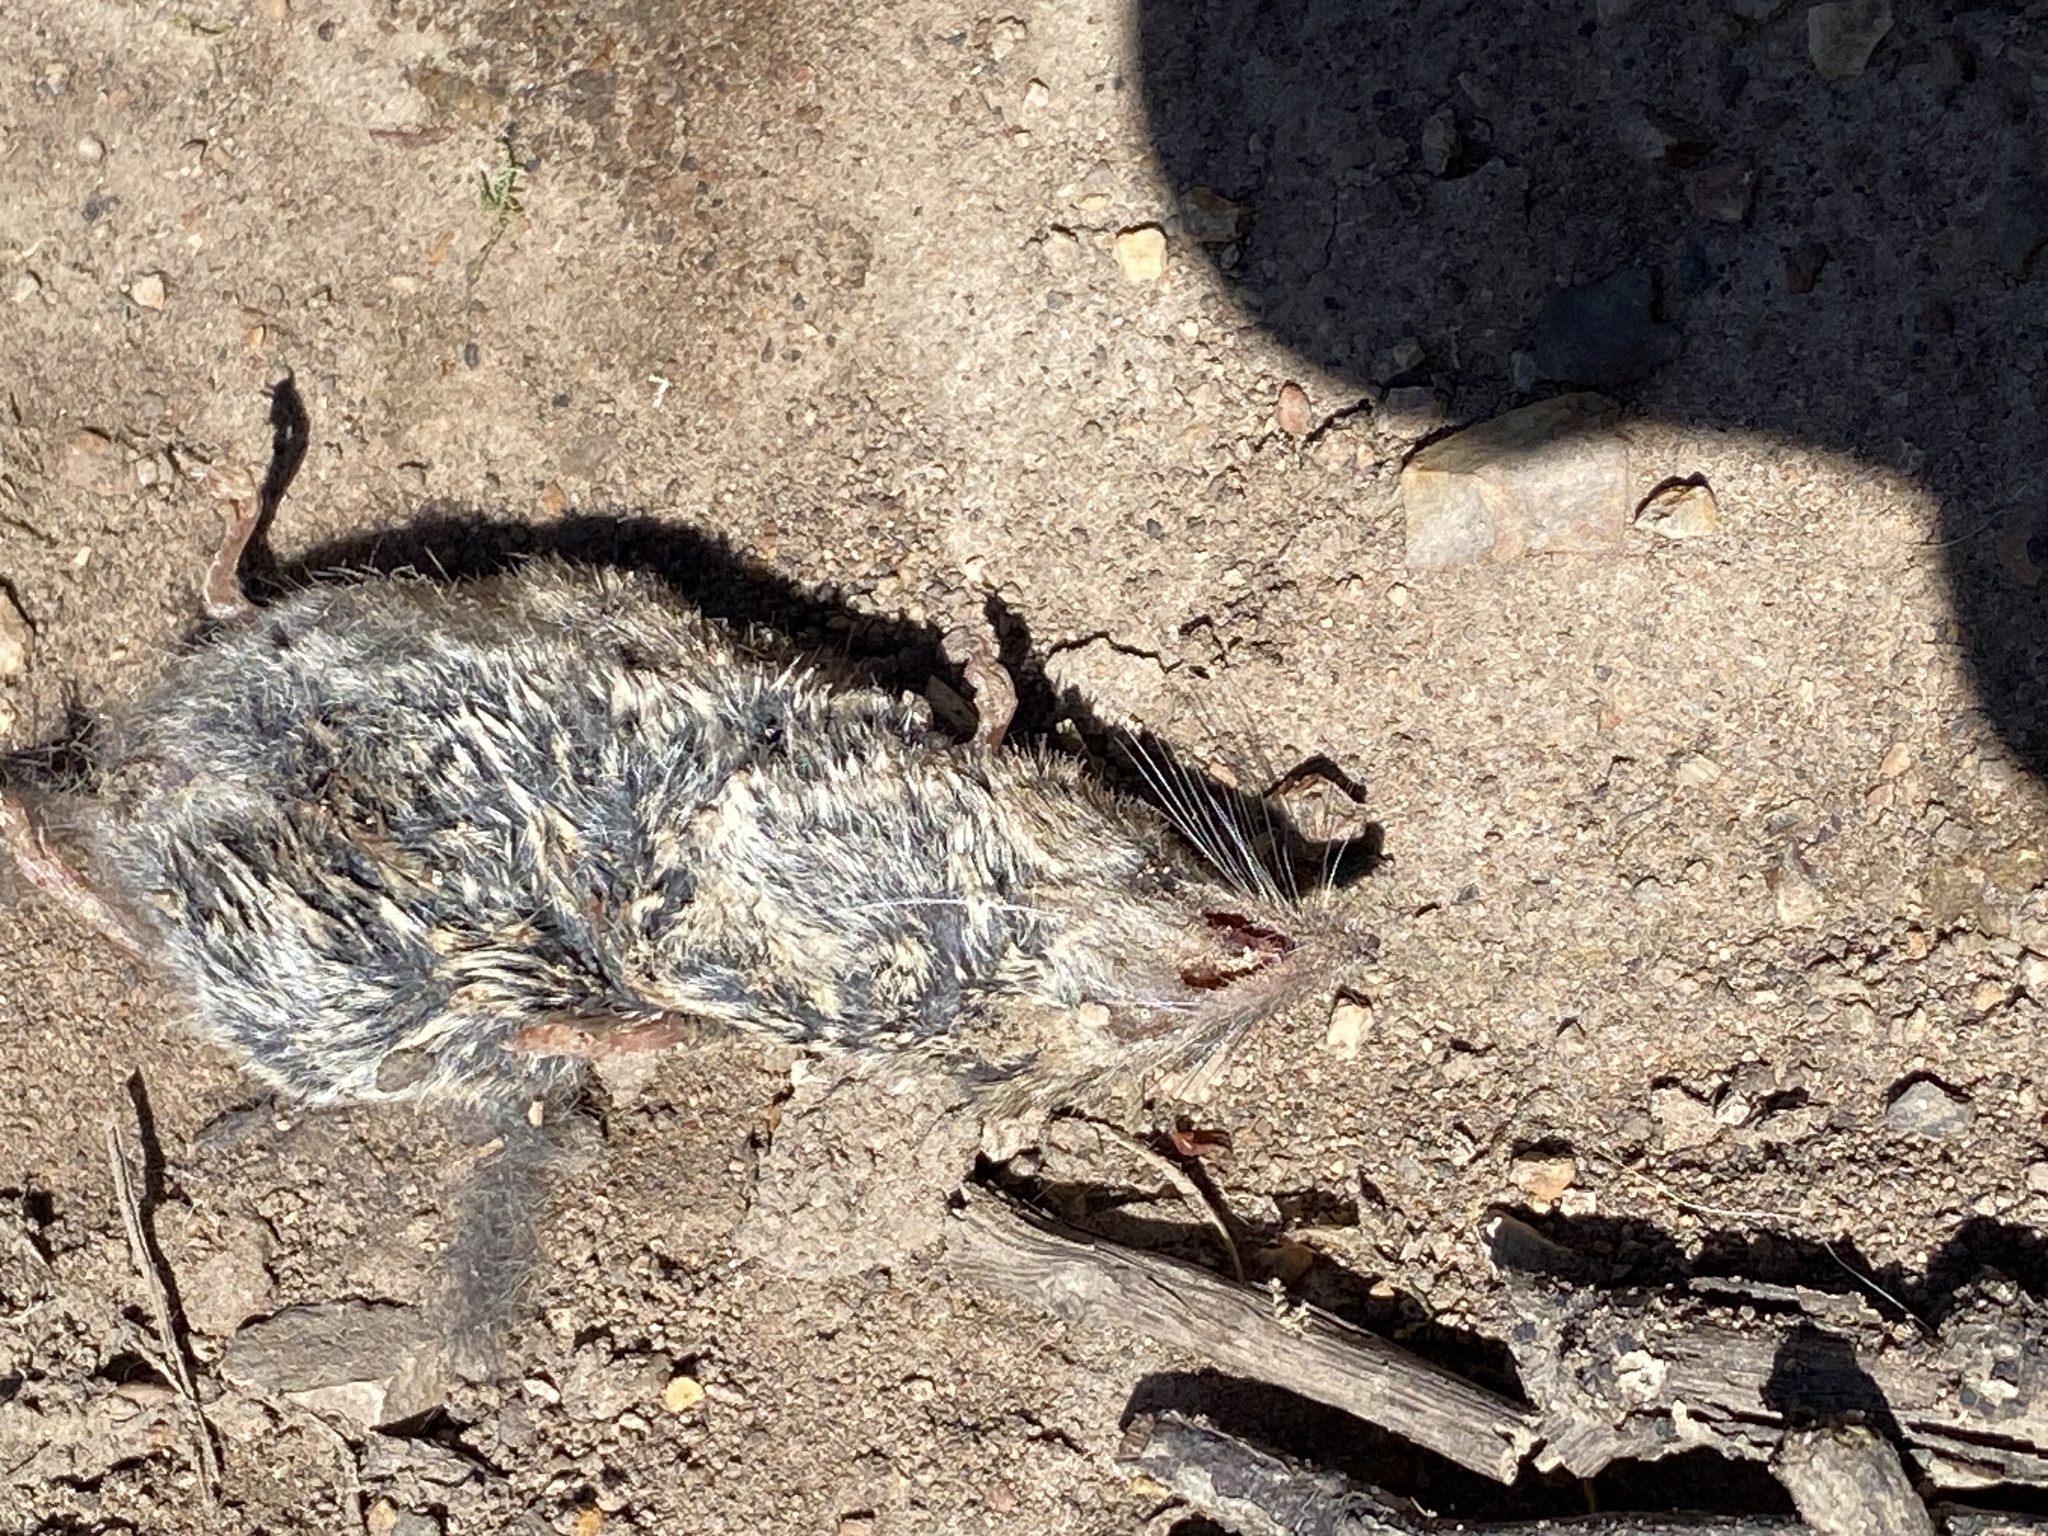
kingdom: Animalia
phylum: Chordata
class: Mammalia
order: Soricomorpha
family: Soricidae
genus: Sorex
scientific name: Sorex ornatus
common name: Ornate shrew
